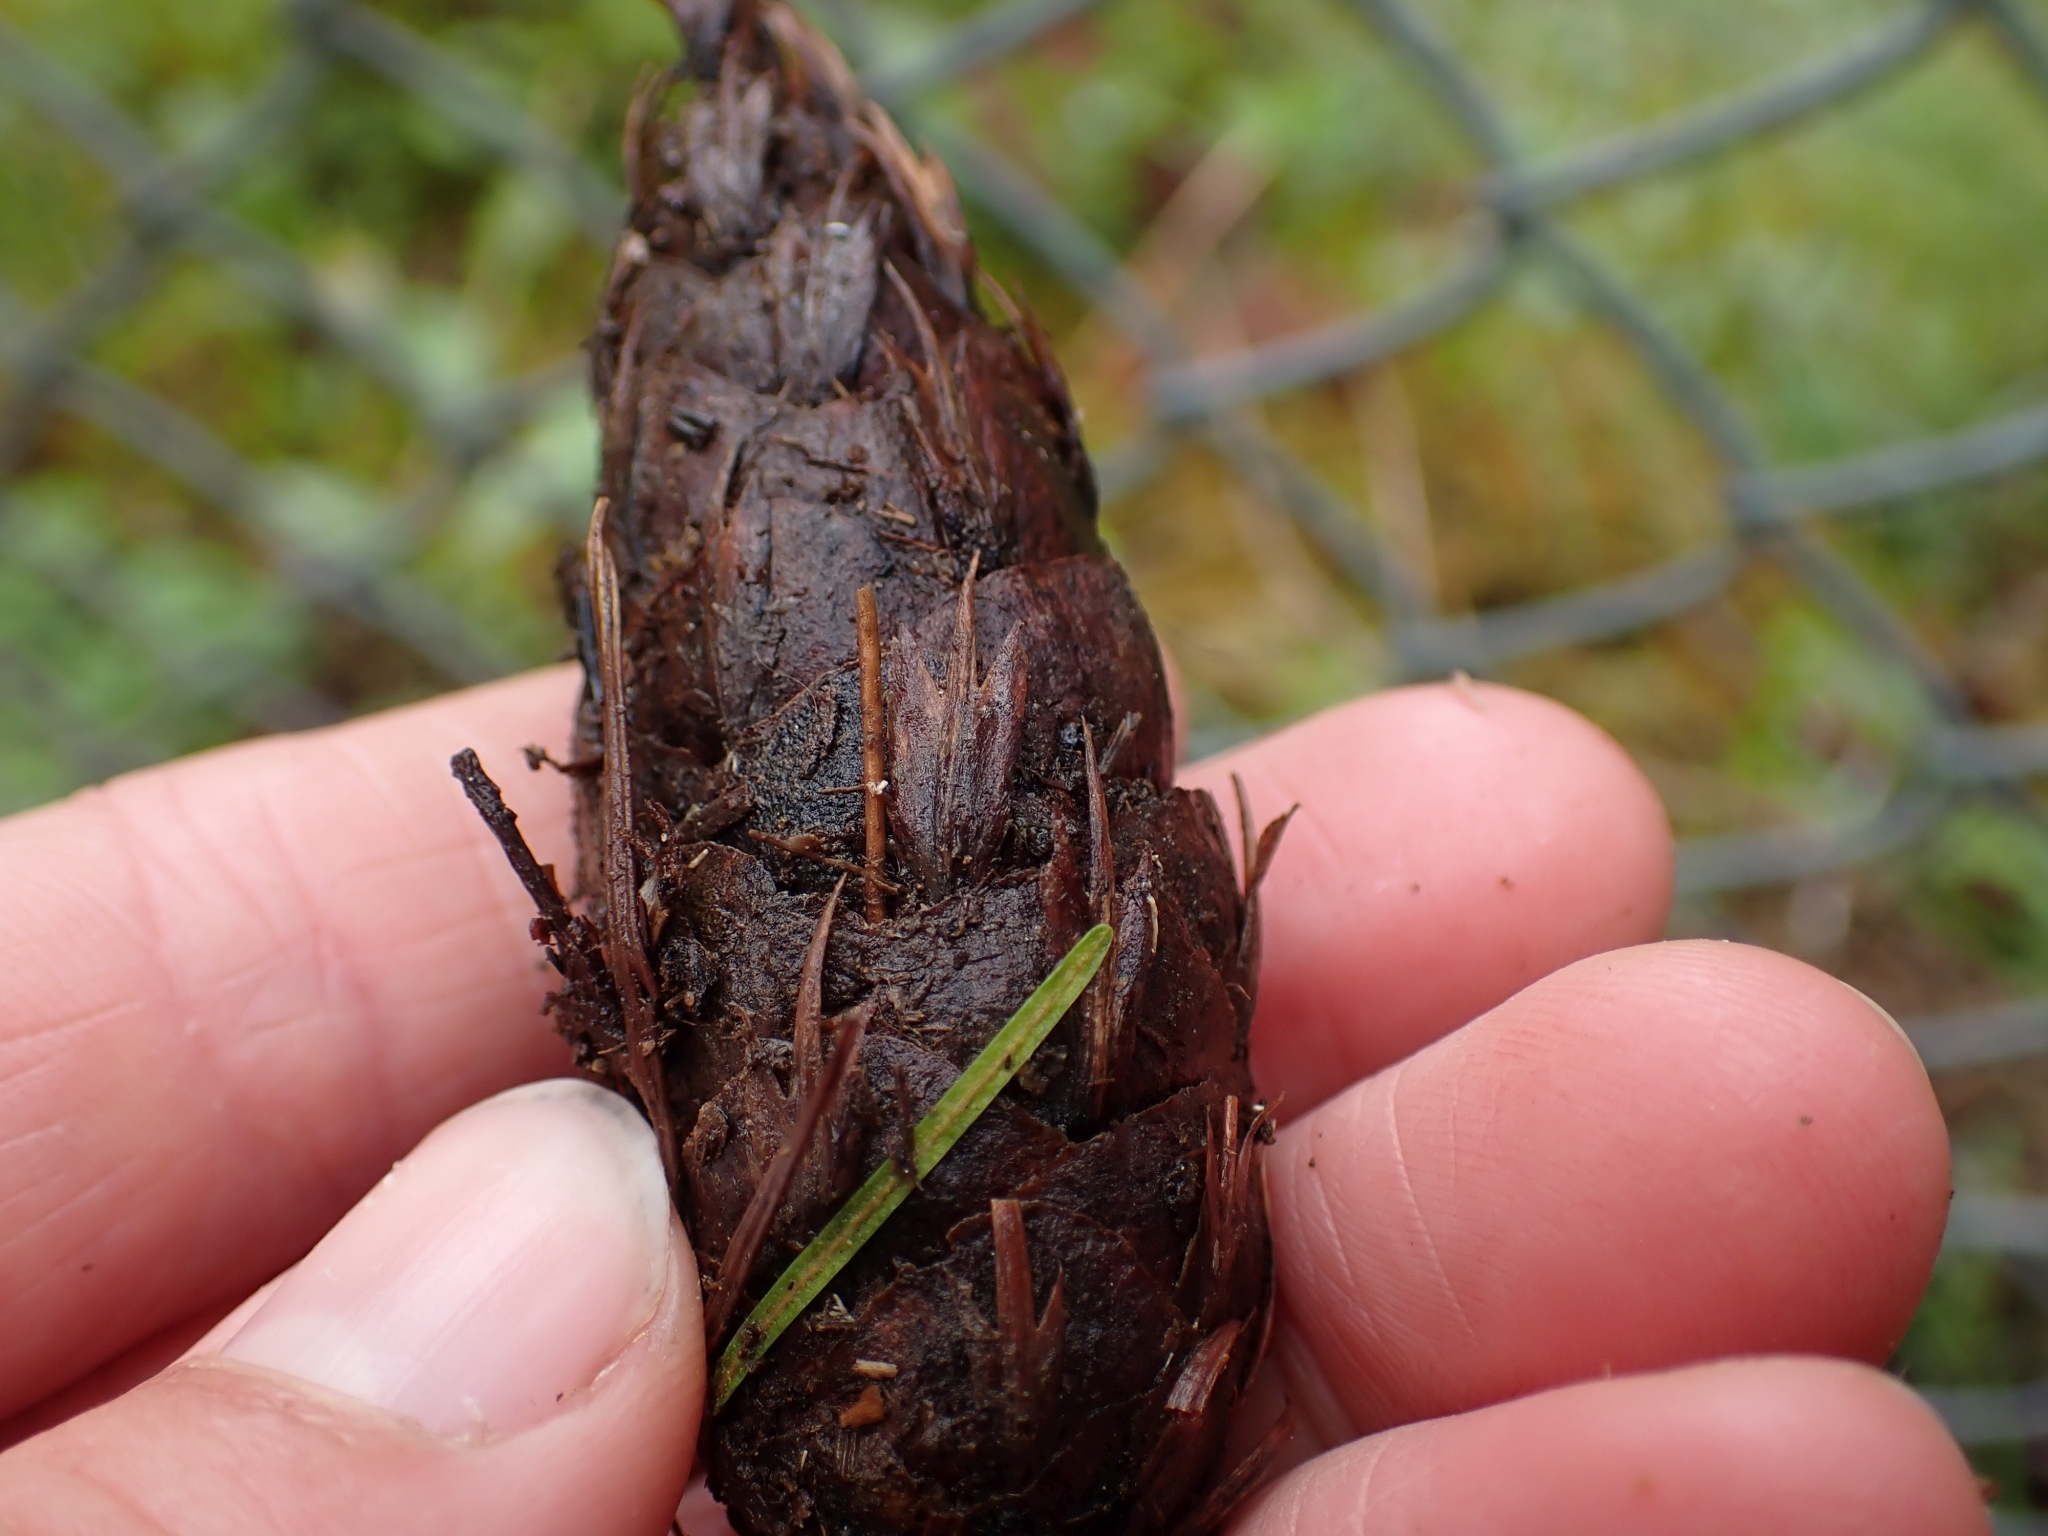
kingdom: Plantae
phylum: Tracheophyta
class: Pinopsida
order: Pinales
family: Pinaceae
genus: Pseudotsuga
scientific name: Pseudotsuga menziesii
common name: Douglas fir
